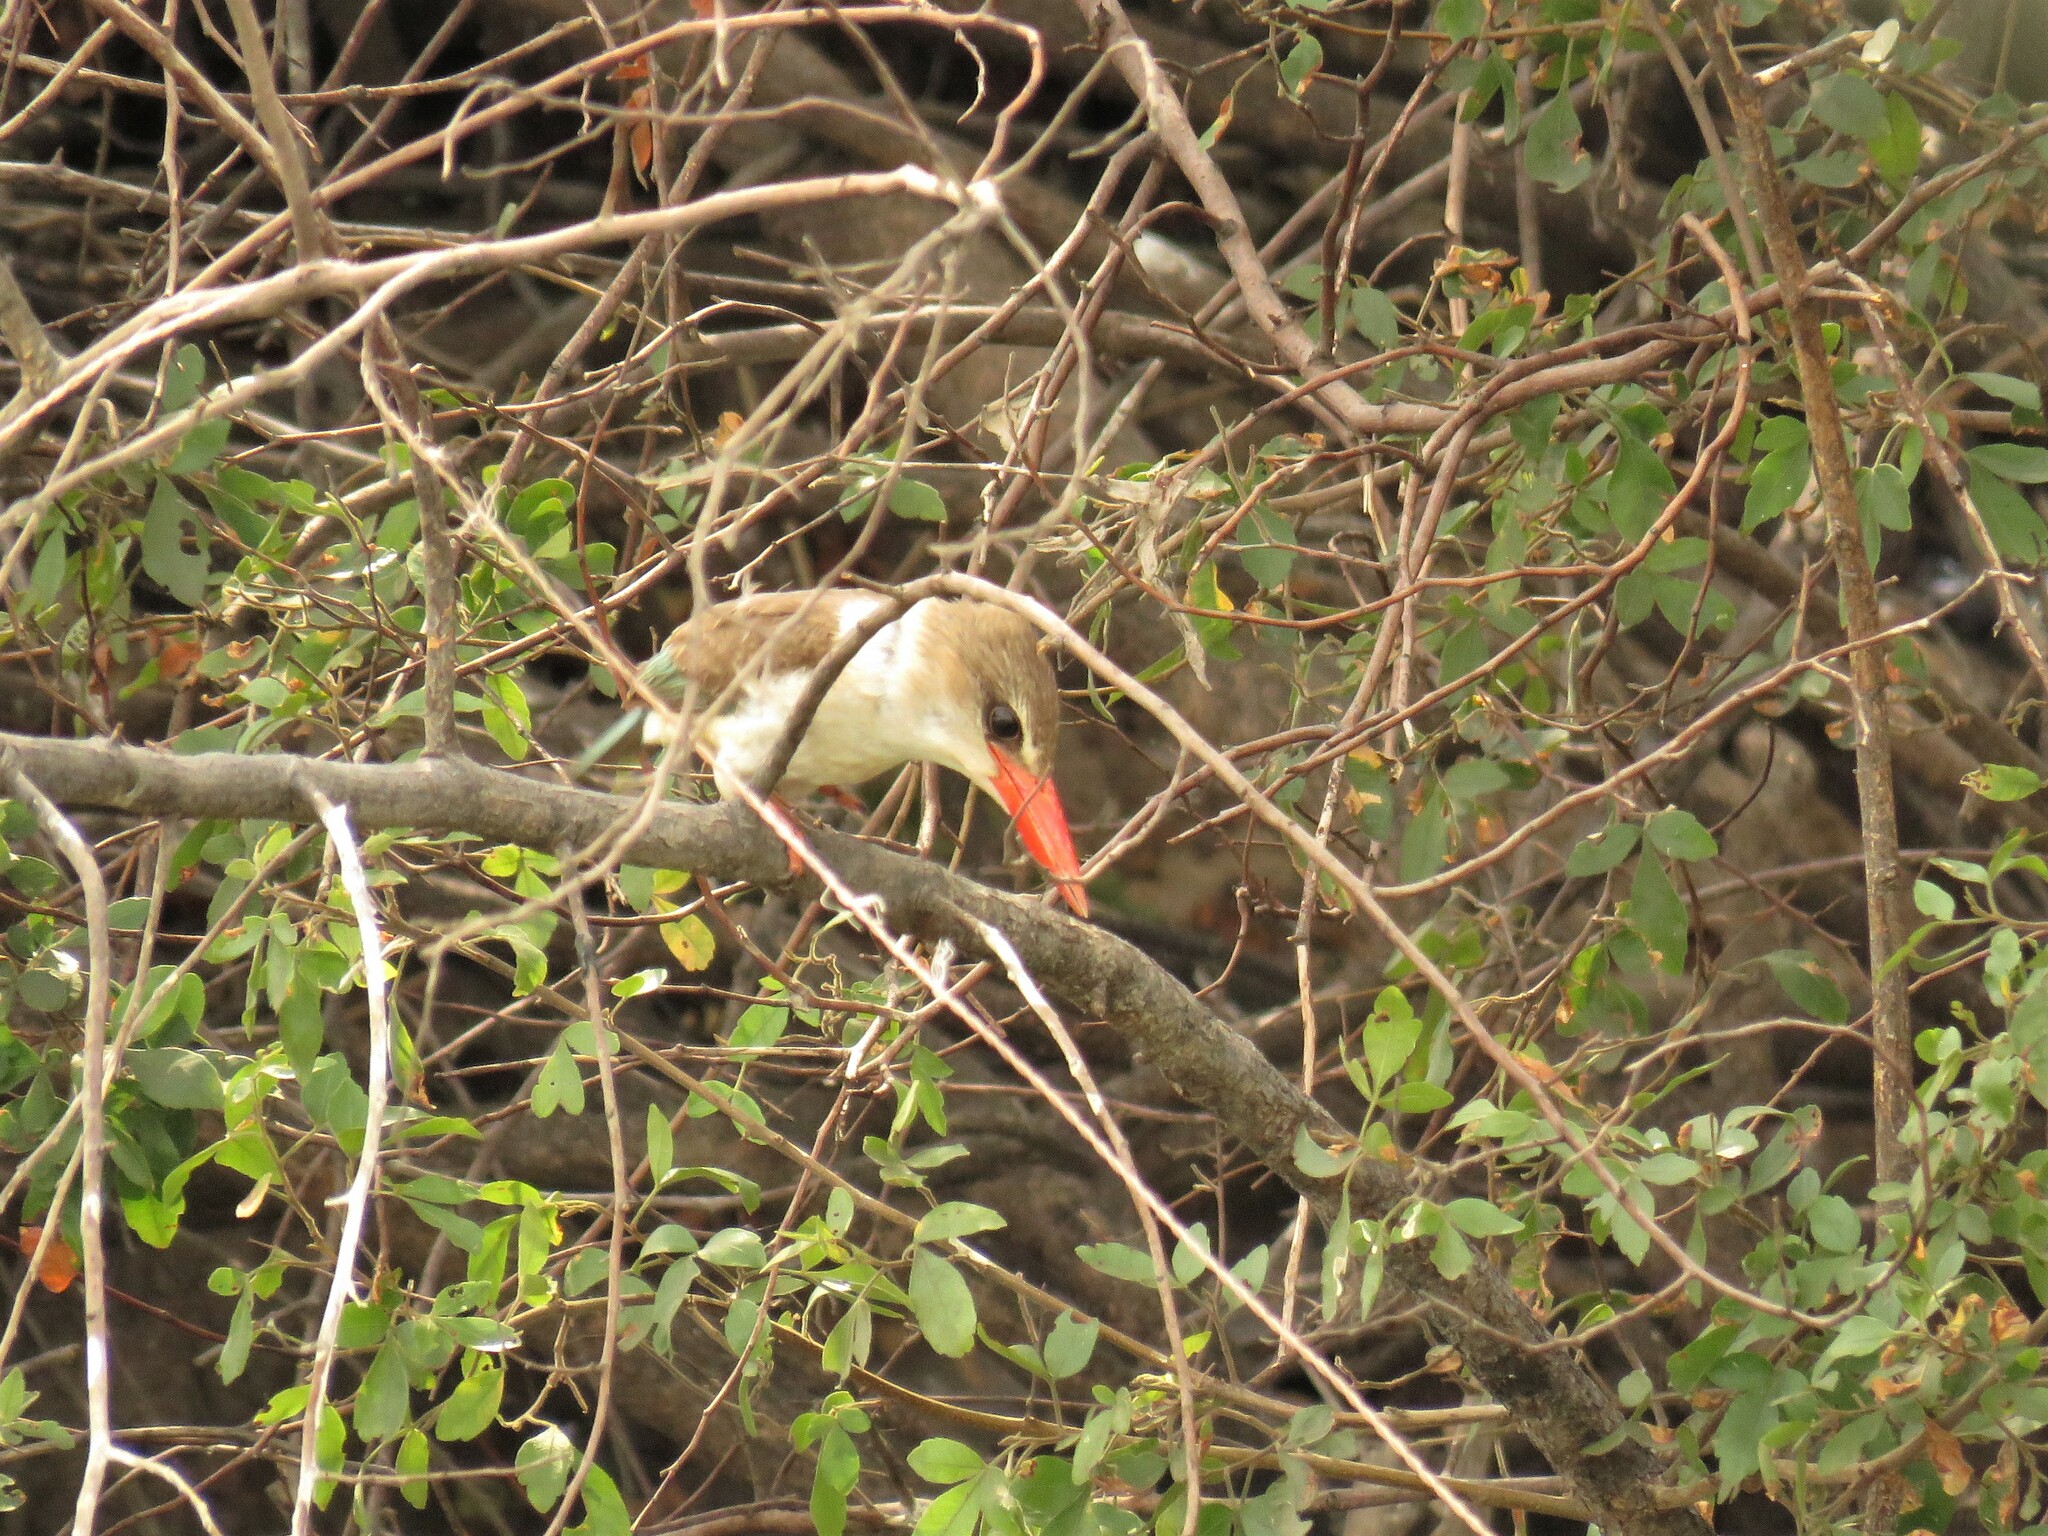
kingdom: Animalia
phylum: Chordata
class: Aves
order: Coraciiformes
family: Alcedinidae
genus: Halcyon
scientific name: Halcyon albiventris
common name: Brown-hooded kingfisher
